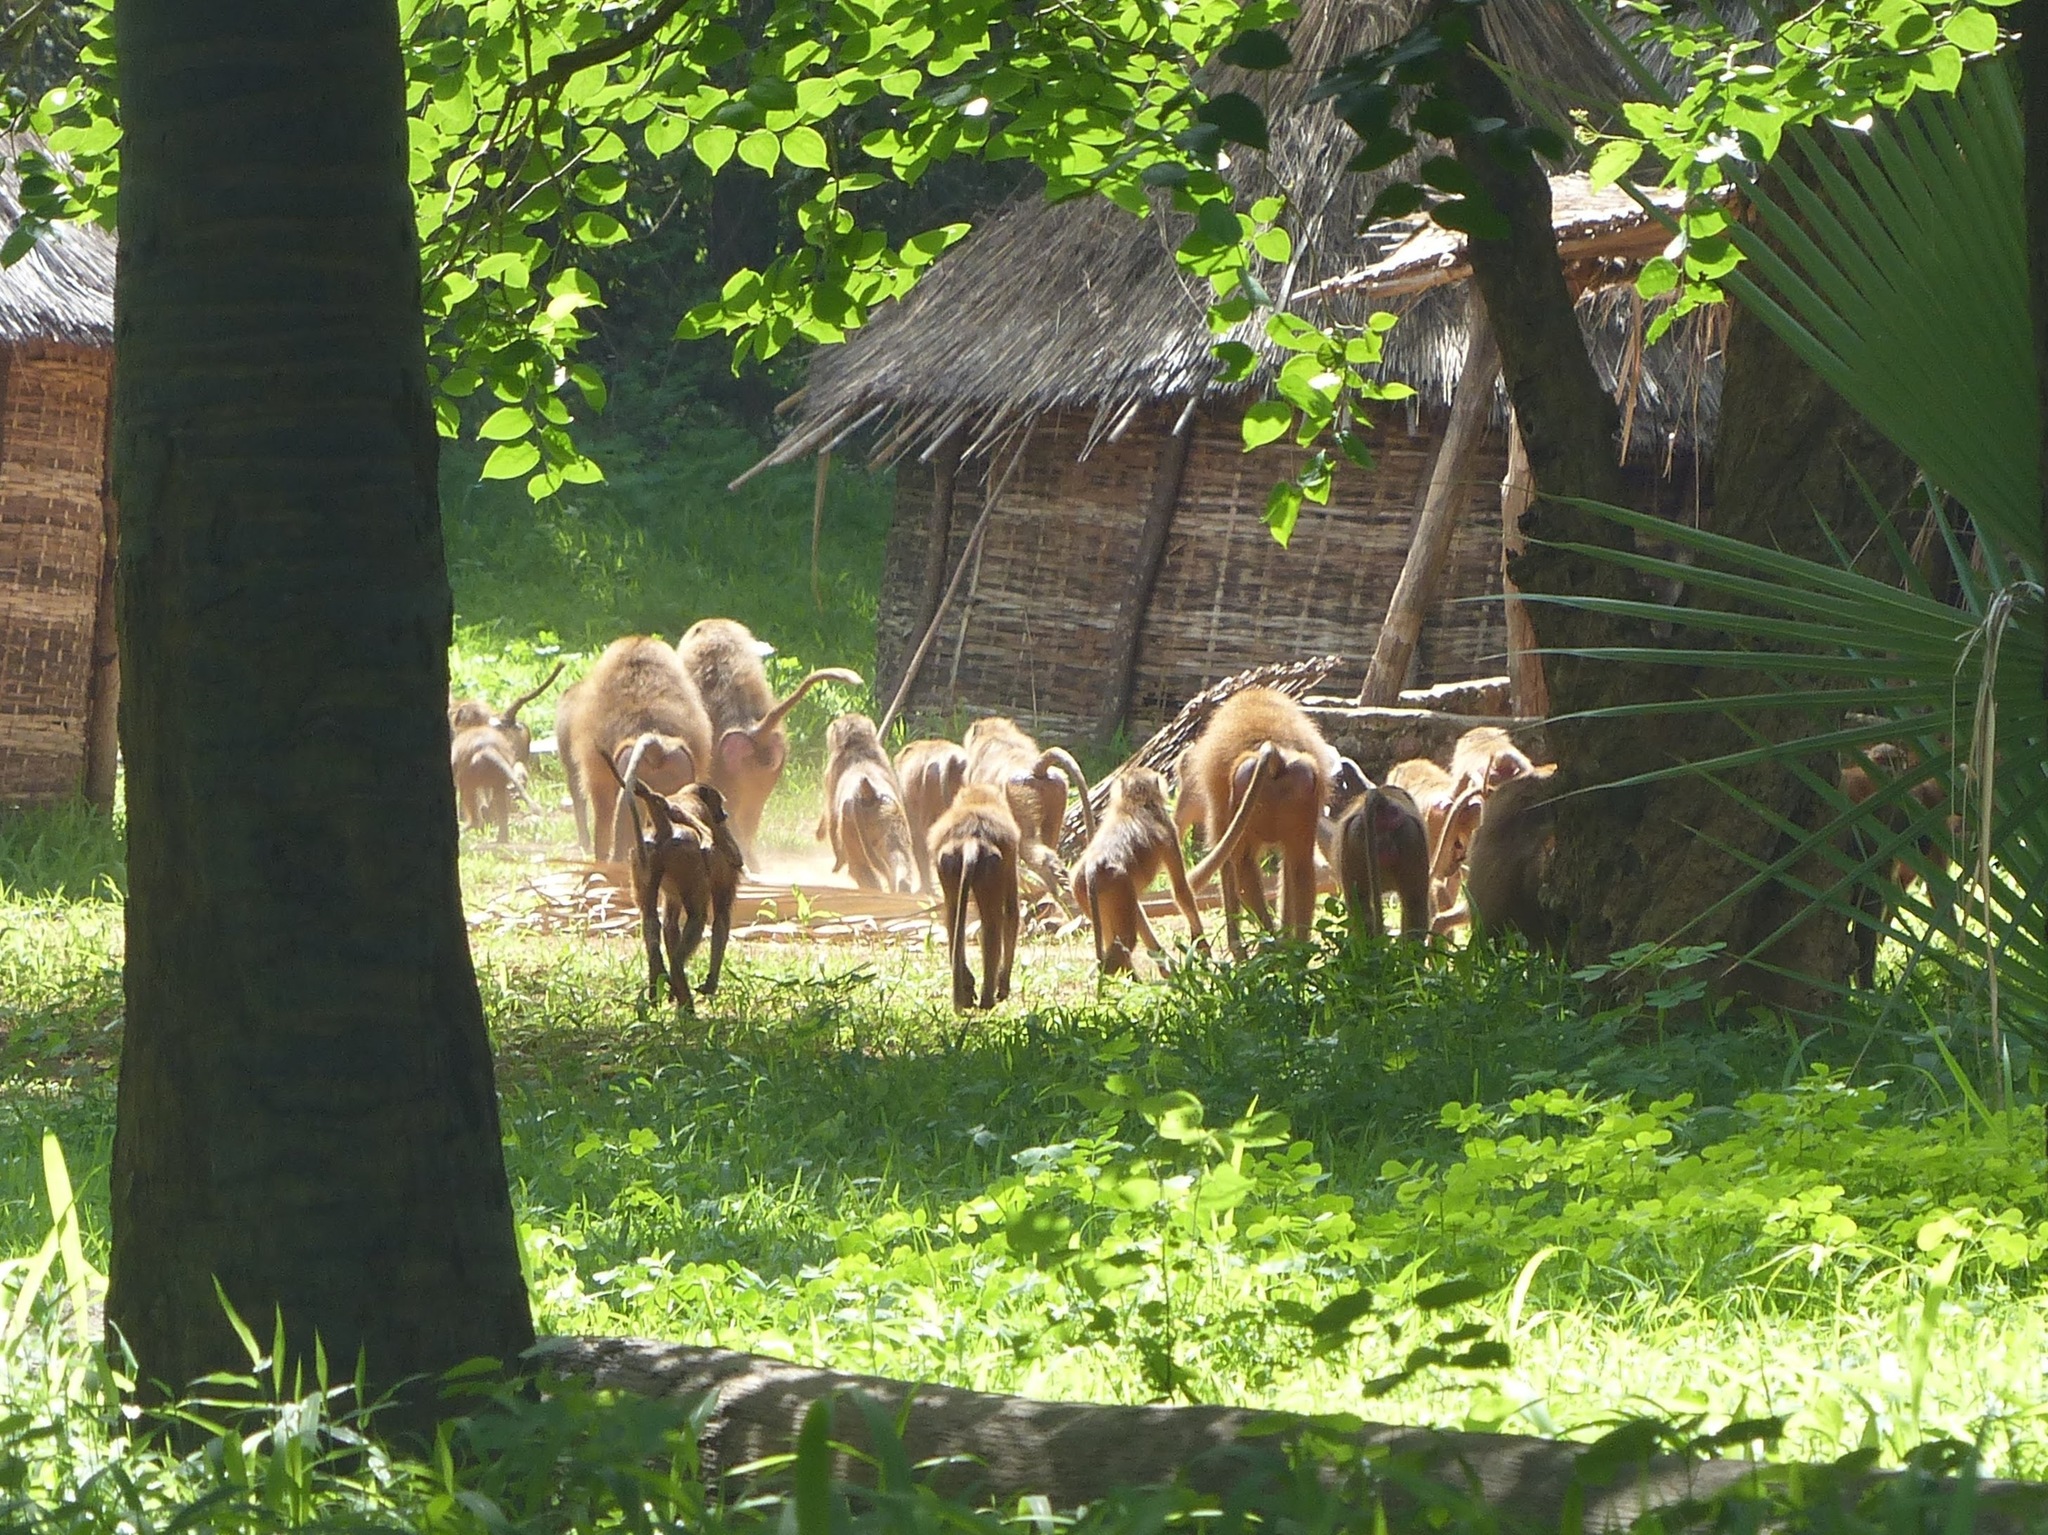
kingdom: Animalia
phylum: Chordata
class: Mammalia
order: Primates
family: Cercopithecidae
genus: Papio
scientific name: Papio papio
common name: Guinea baboon
